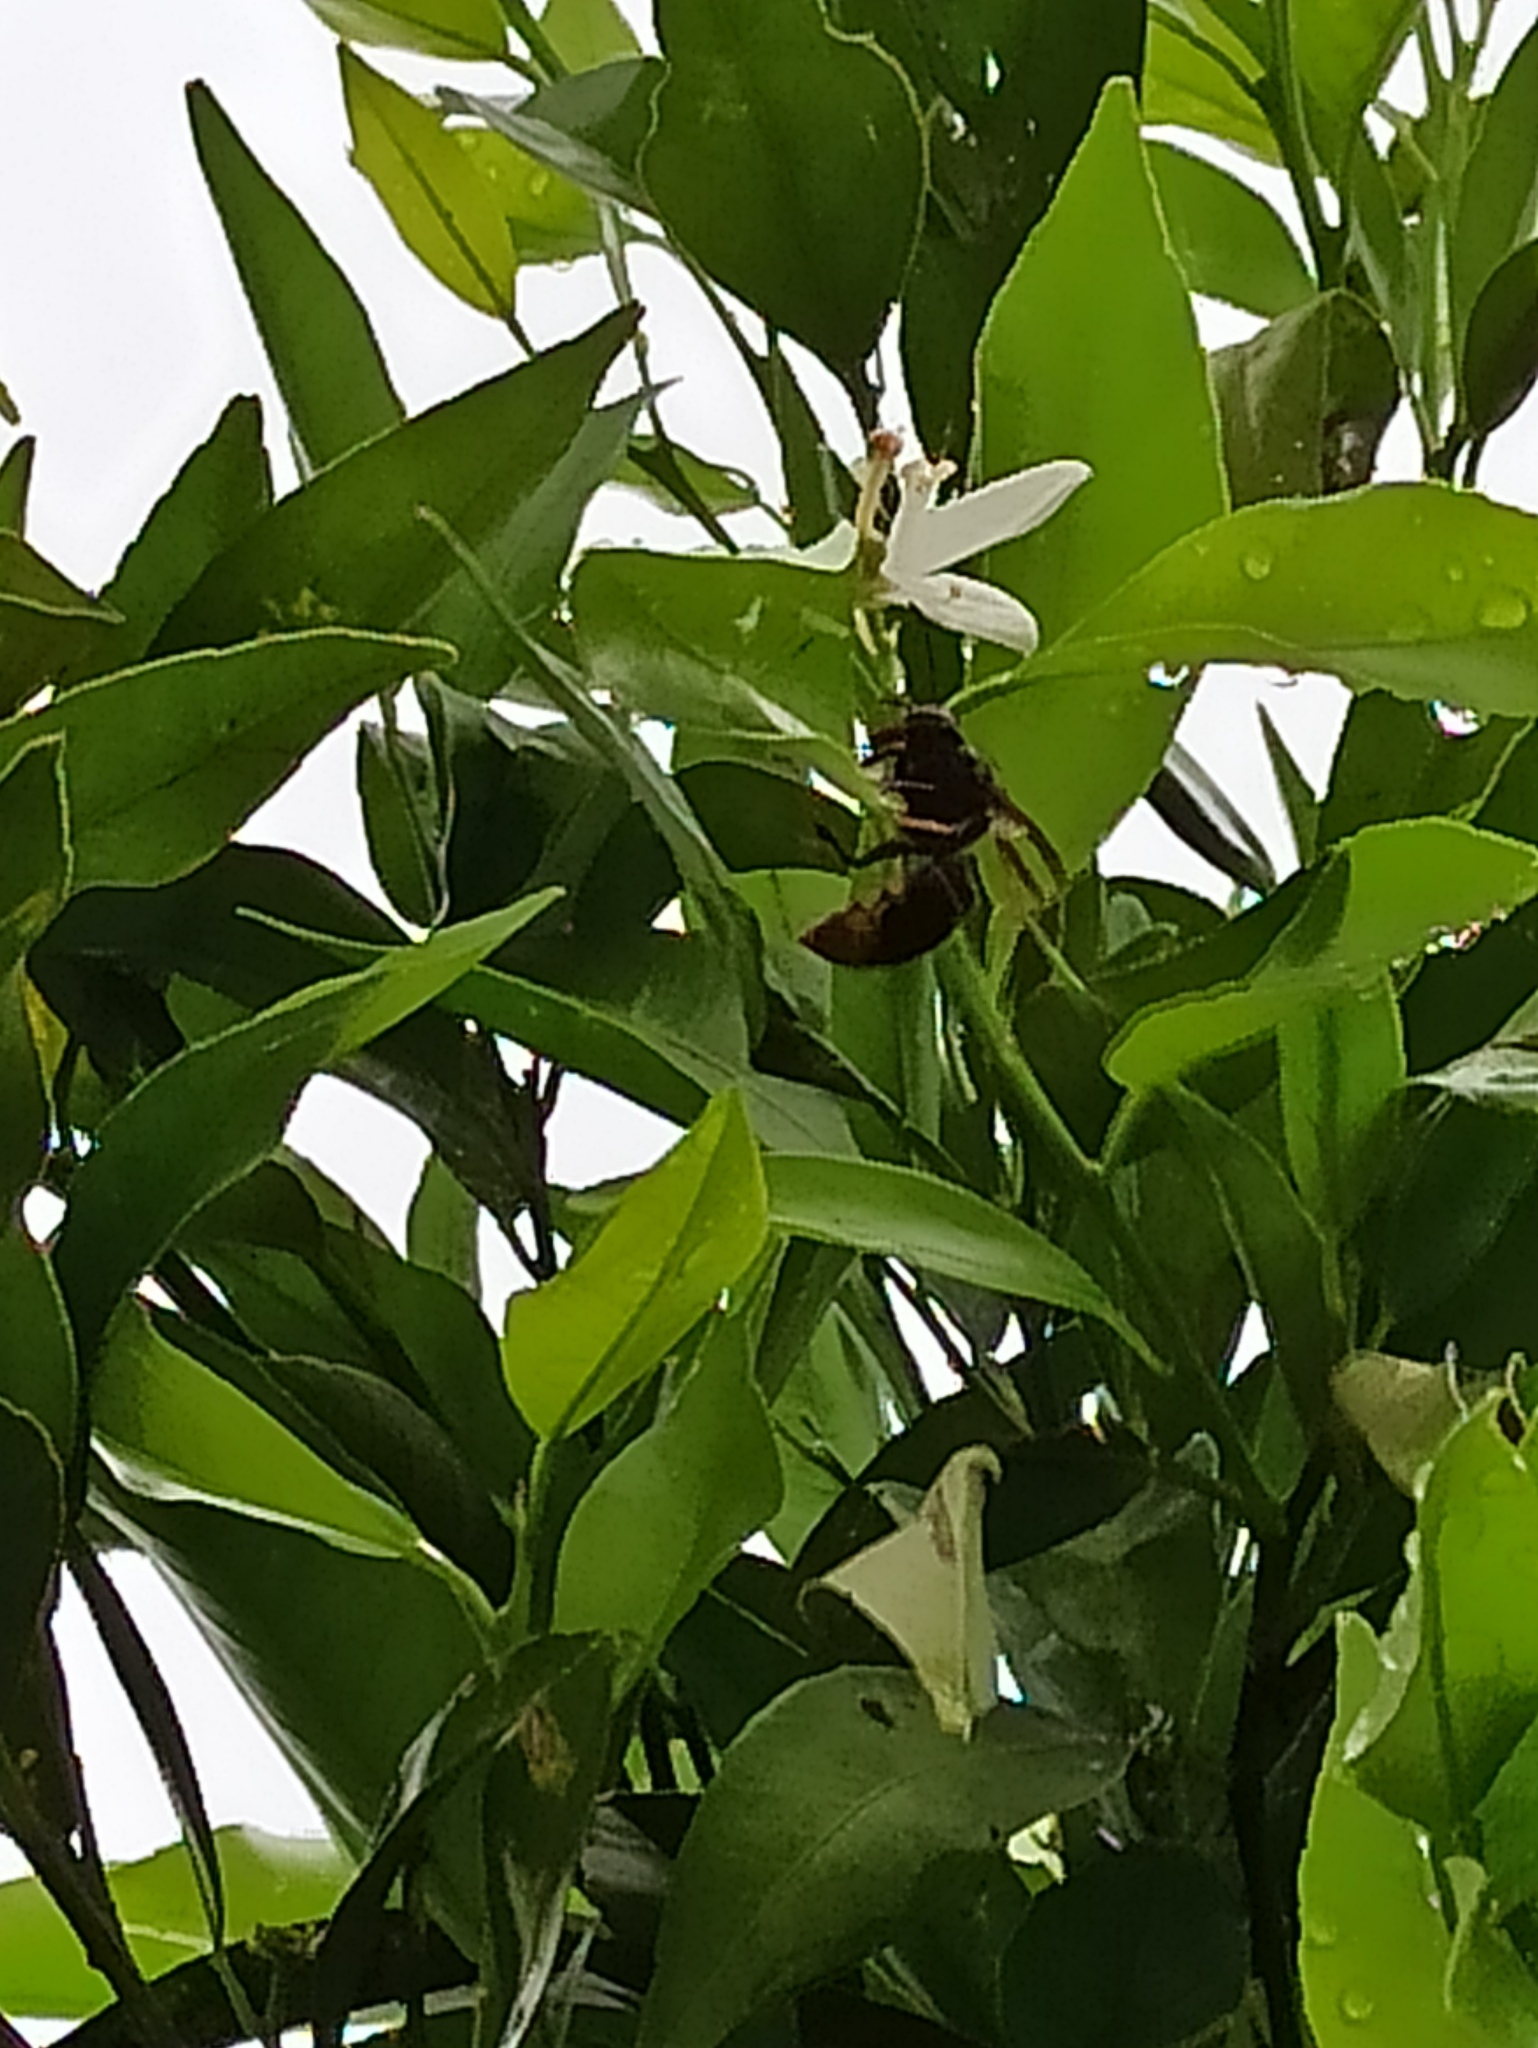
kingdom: Animalia
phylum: Arthropoda
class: Insecta
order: Hymenoptera
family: Vespidae
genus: Vespa
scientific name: Vespa velutina
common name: Asian hornet
